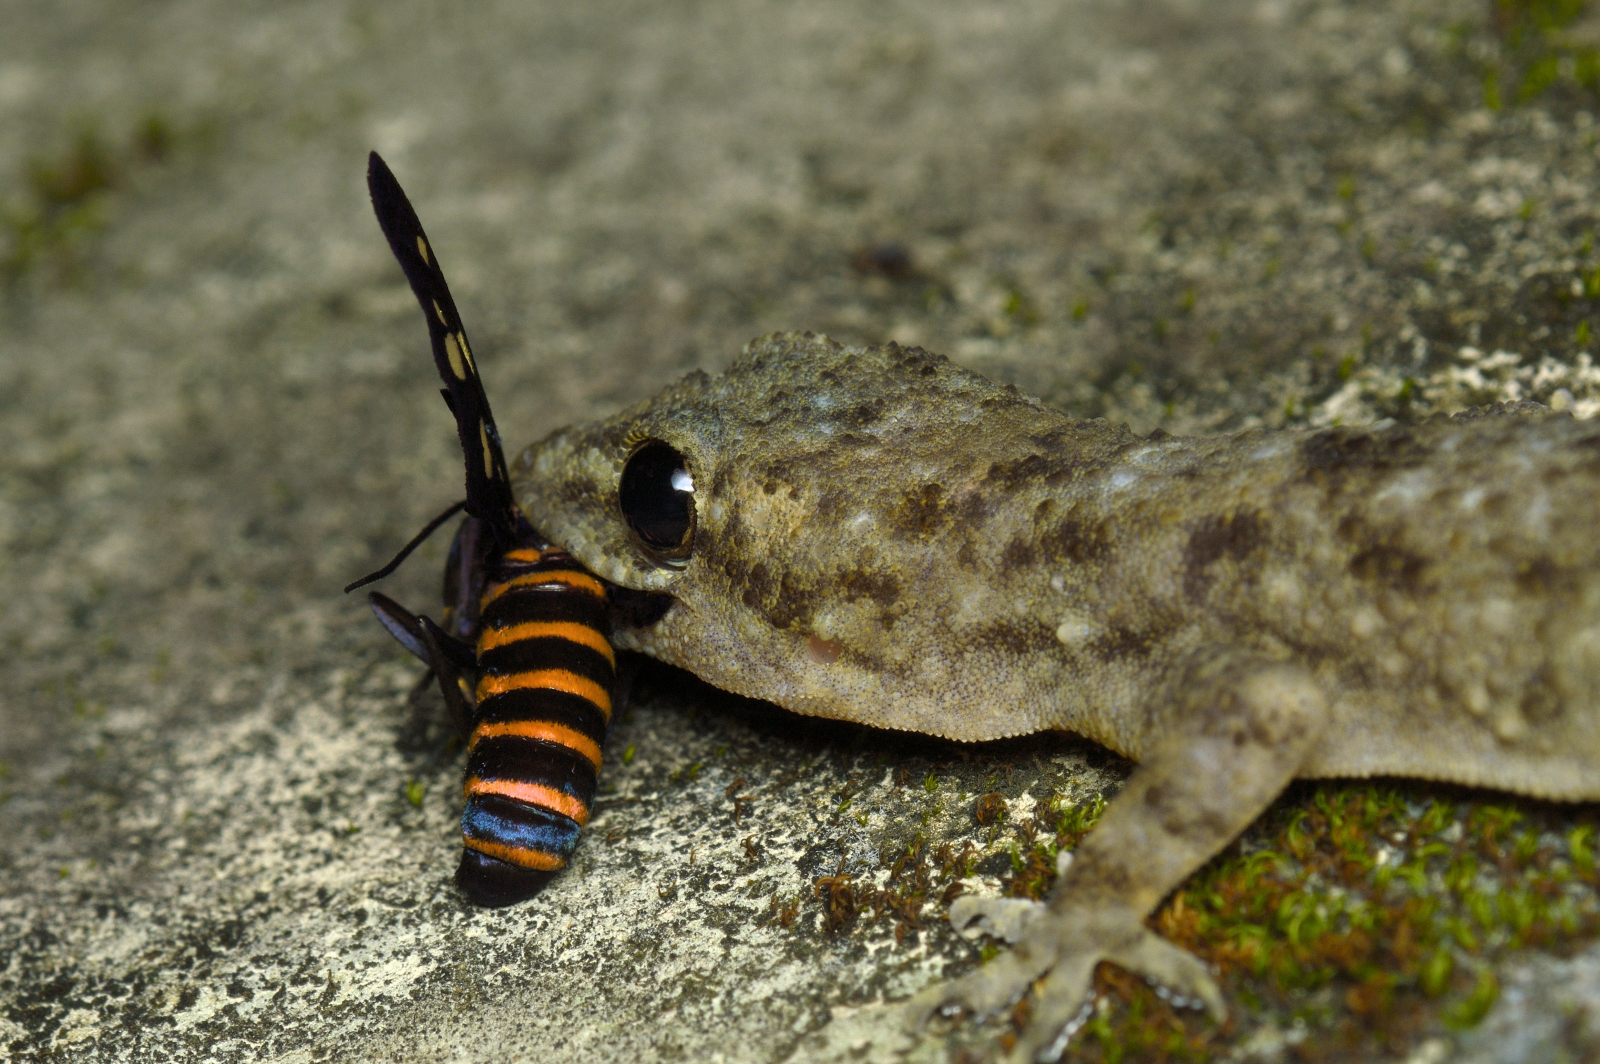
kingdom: Animalia
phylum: Arthropoda
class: Insecta
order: Lepidoptera
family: Erebidae
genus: Amata
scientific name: Amata passalis
